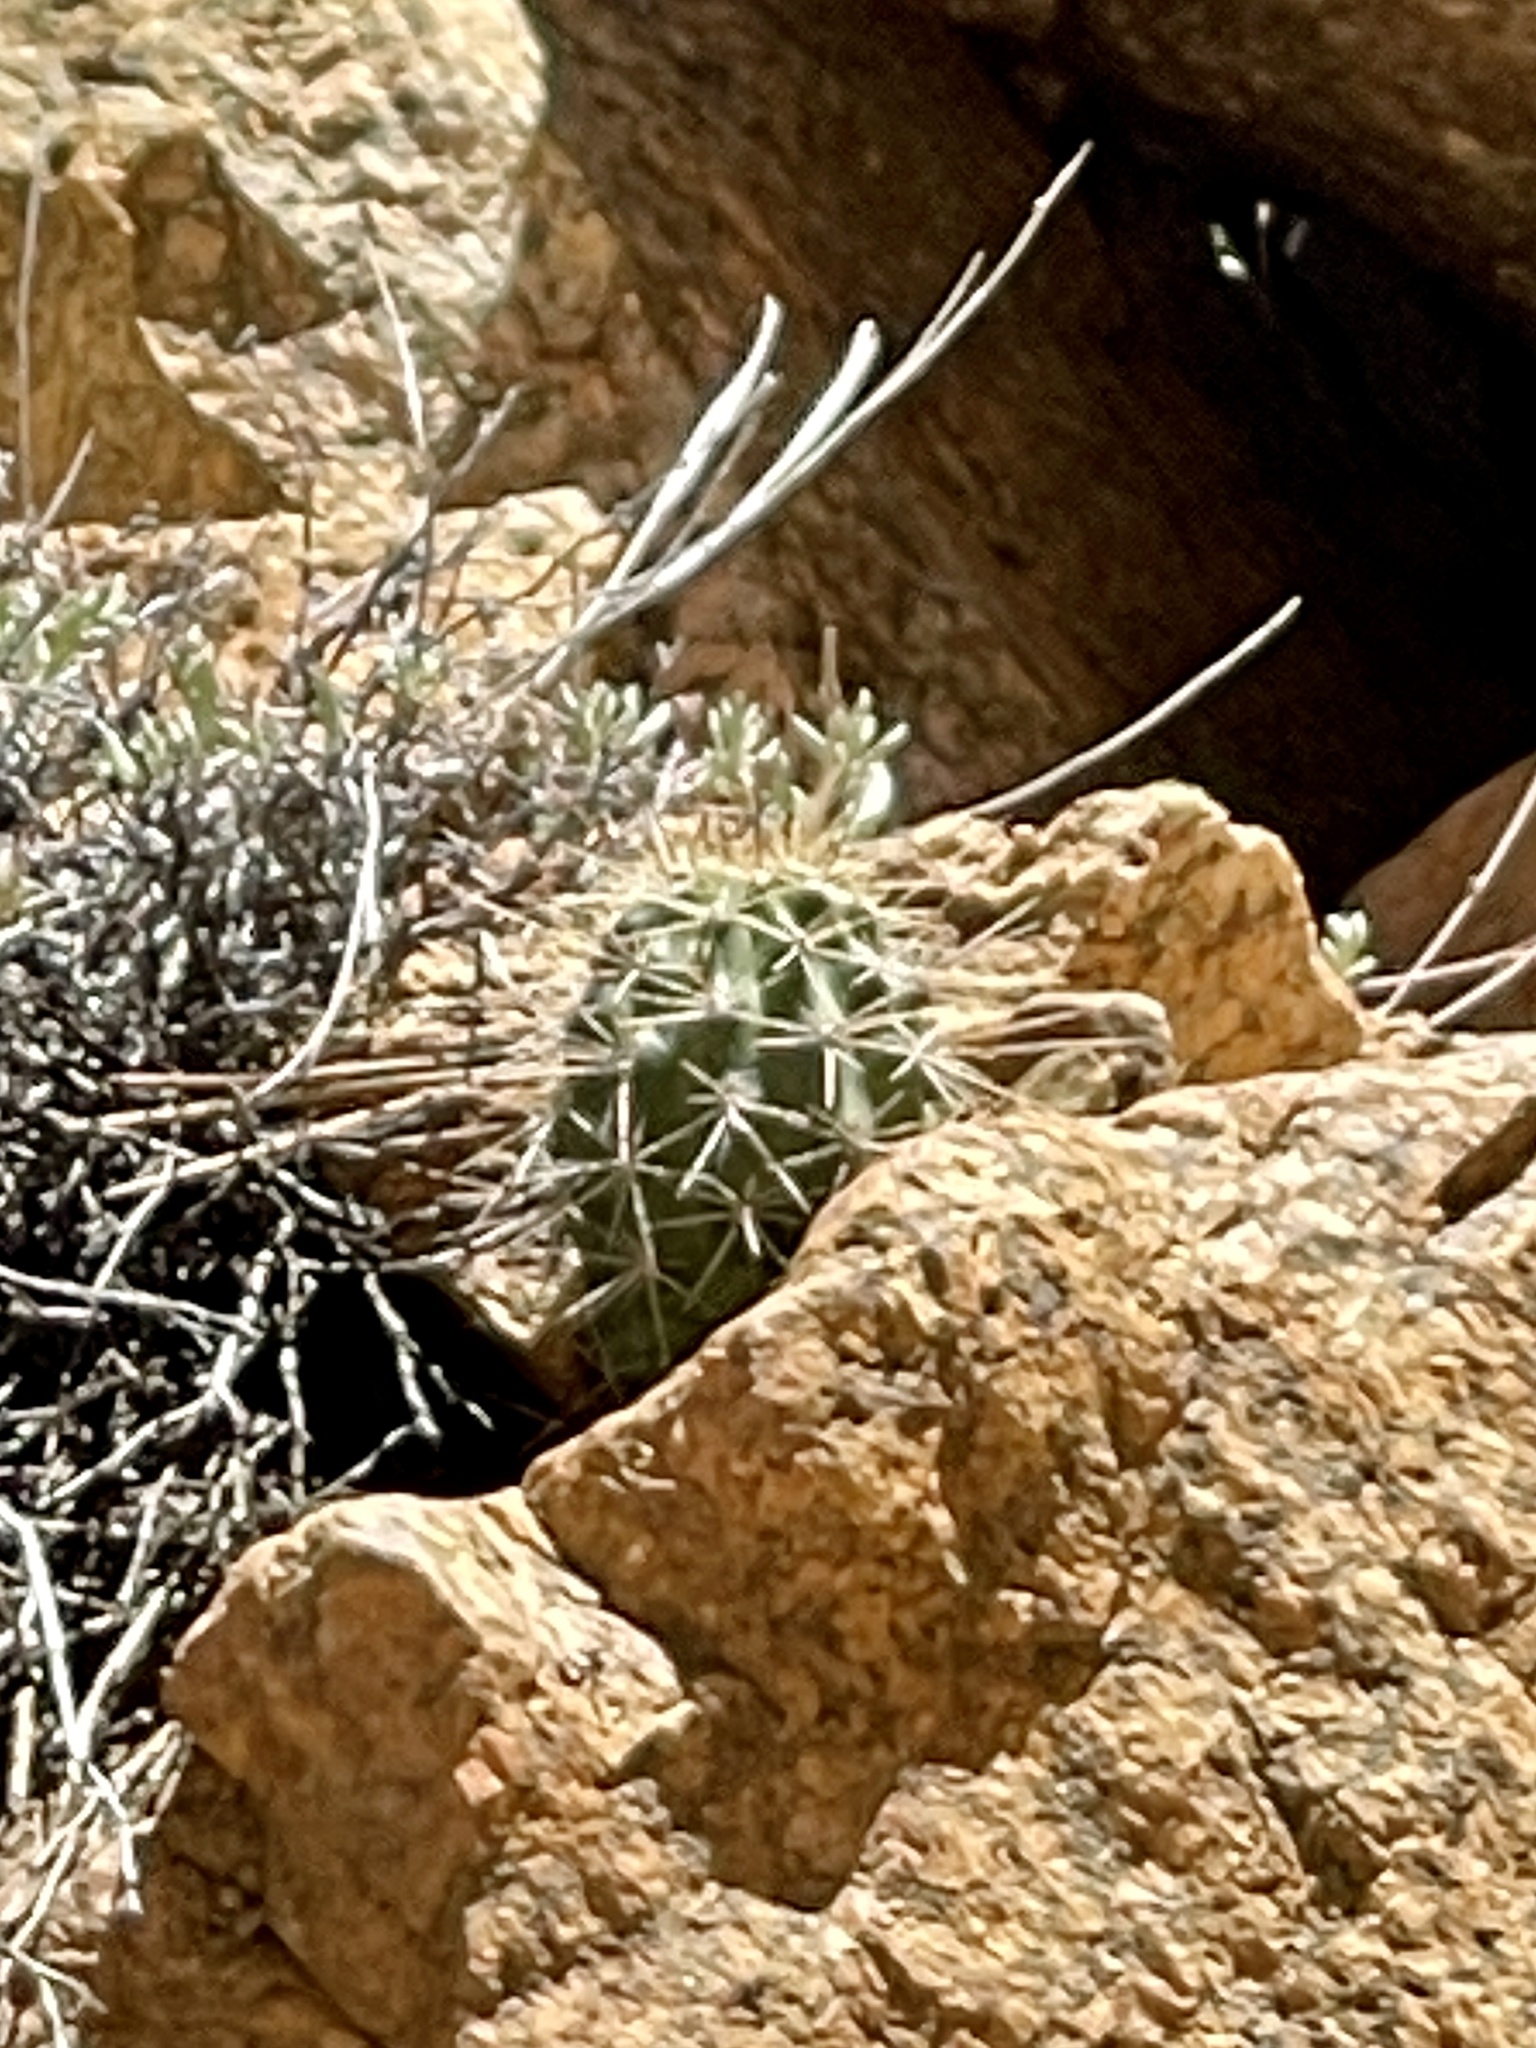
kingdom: Plantae
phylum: Tracheophyta
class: Magnoliopsida
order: Caryophyllales
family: Cactaceae
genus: Echinocereus
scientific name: Echinocereus bakeri
